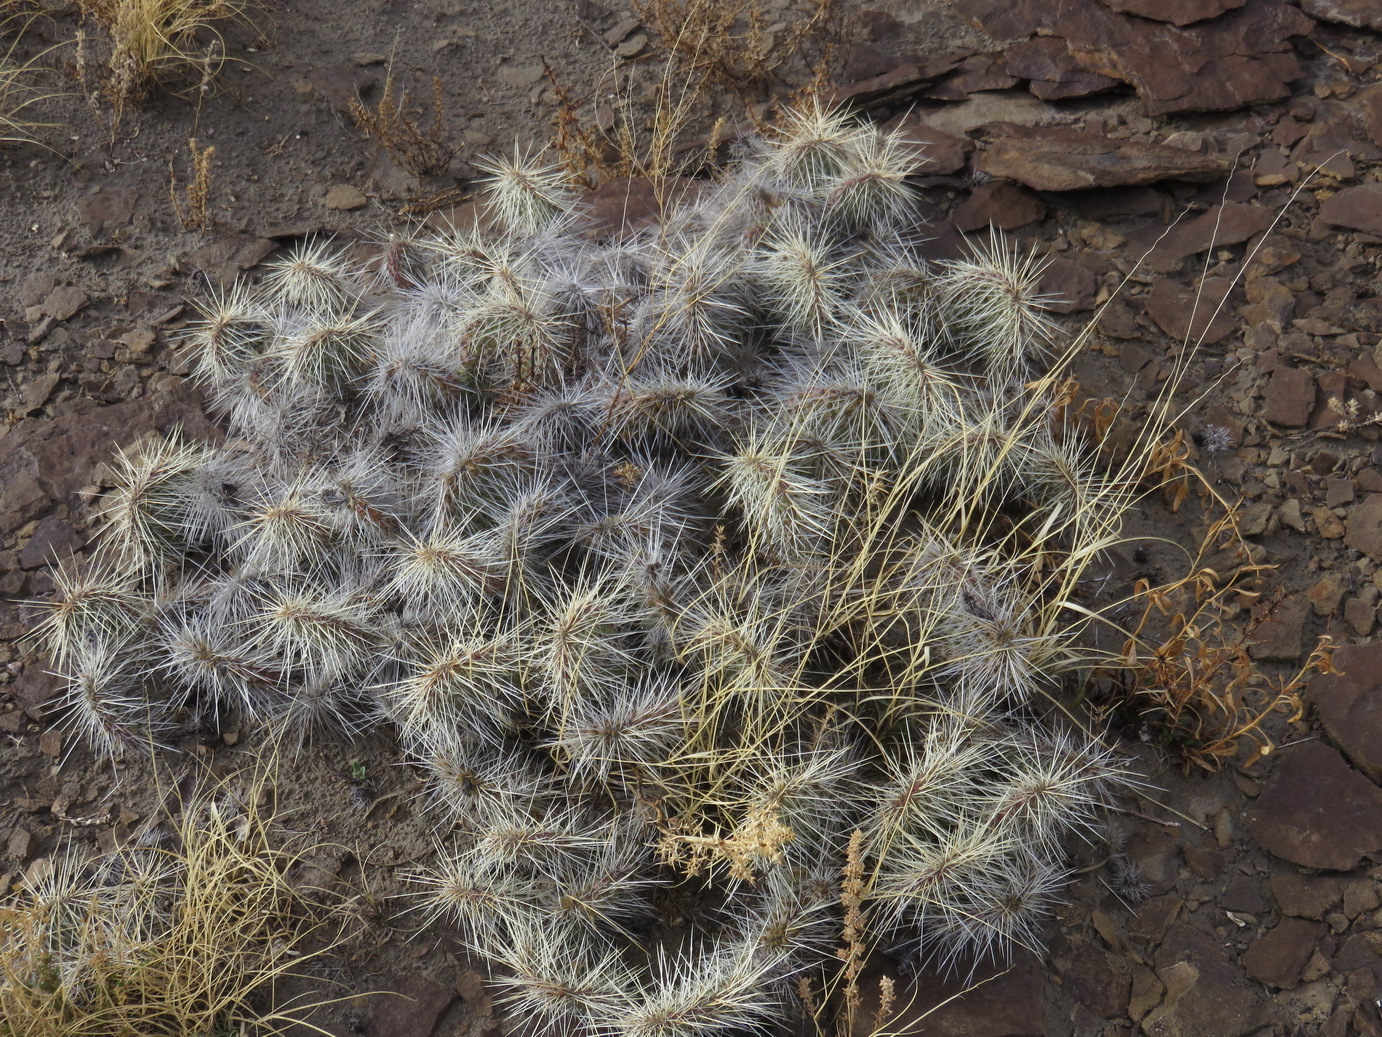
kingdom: Plantae
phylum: Tracheophyta
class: Magnoliopsida
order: Caryophyllales
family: Cactaceae
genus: Opuntia
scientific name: Opuntia polyacantha
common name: Plains prickly-pear
